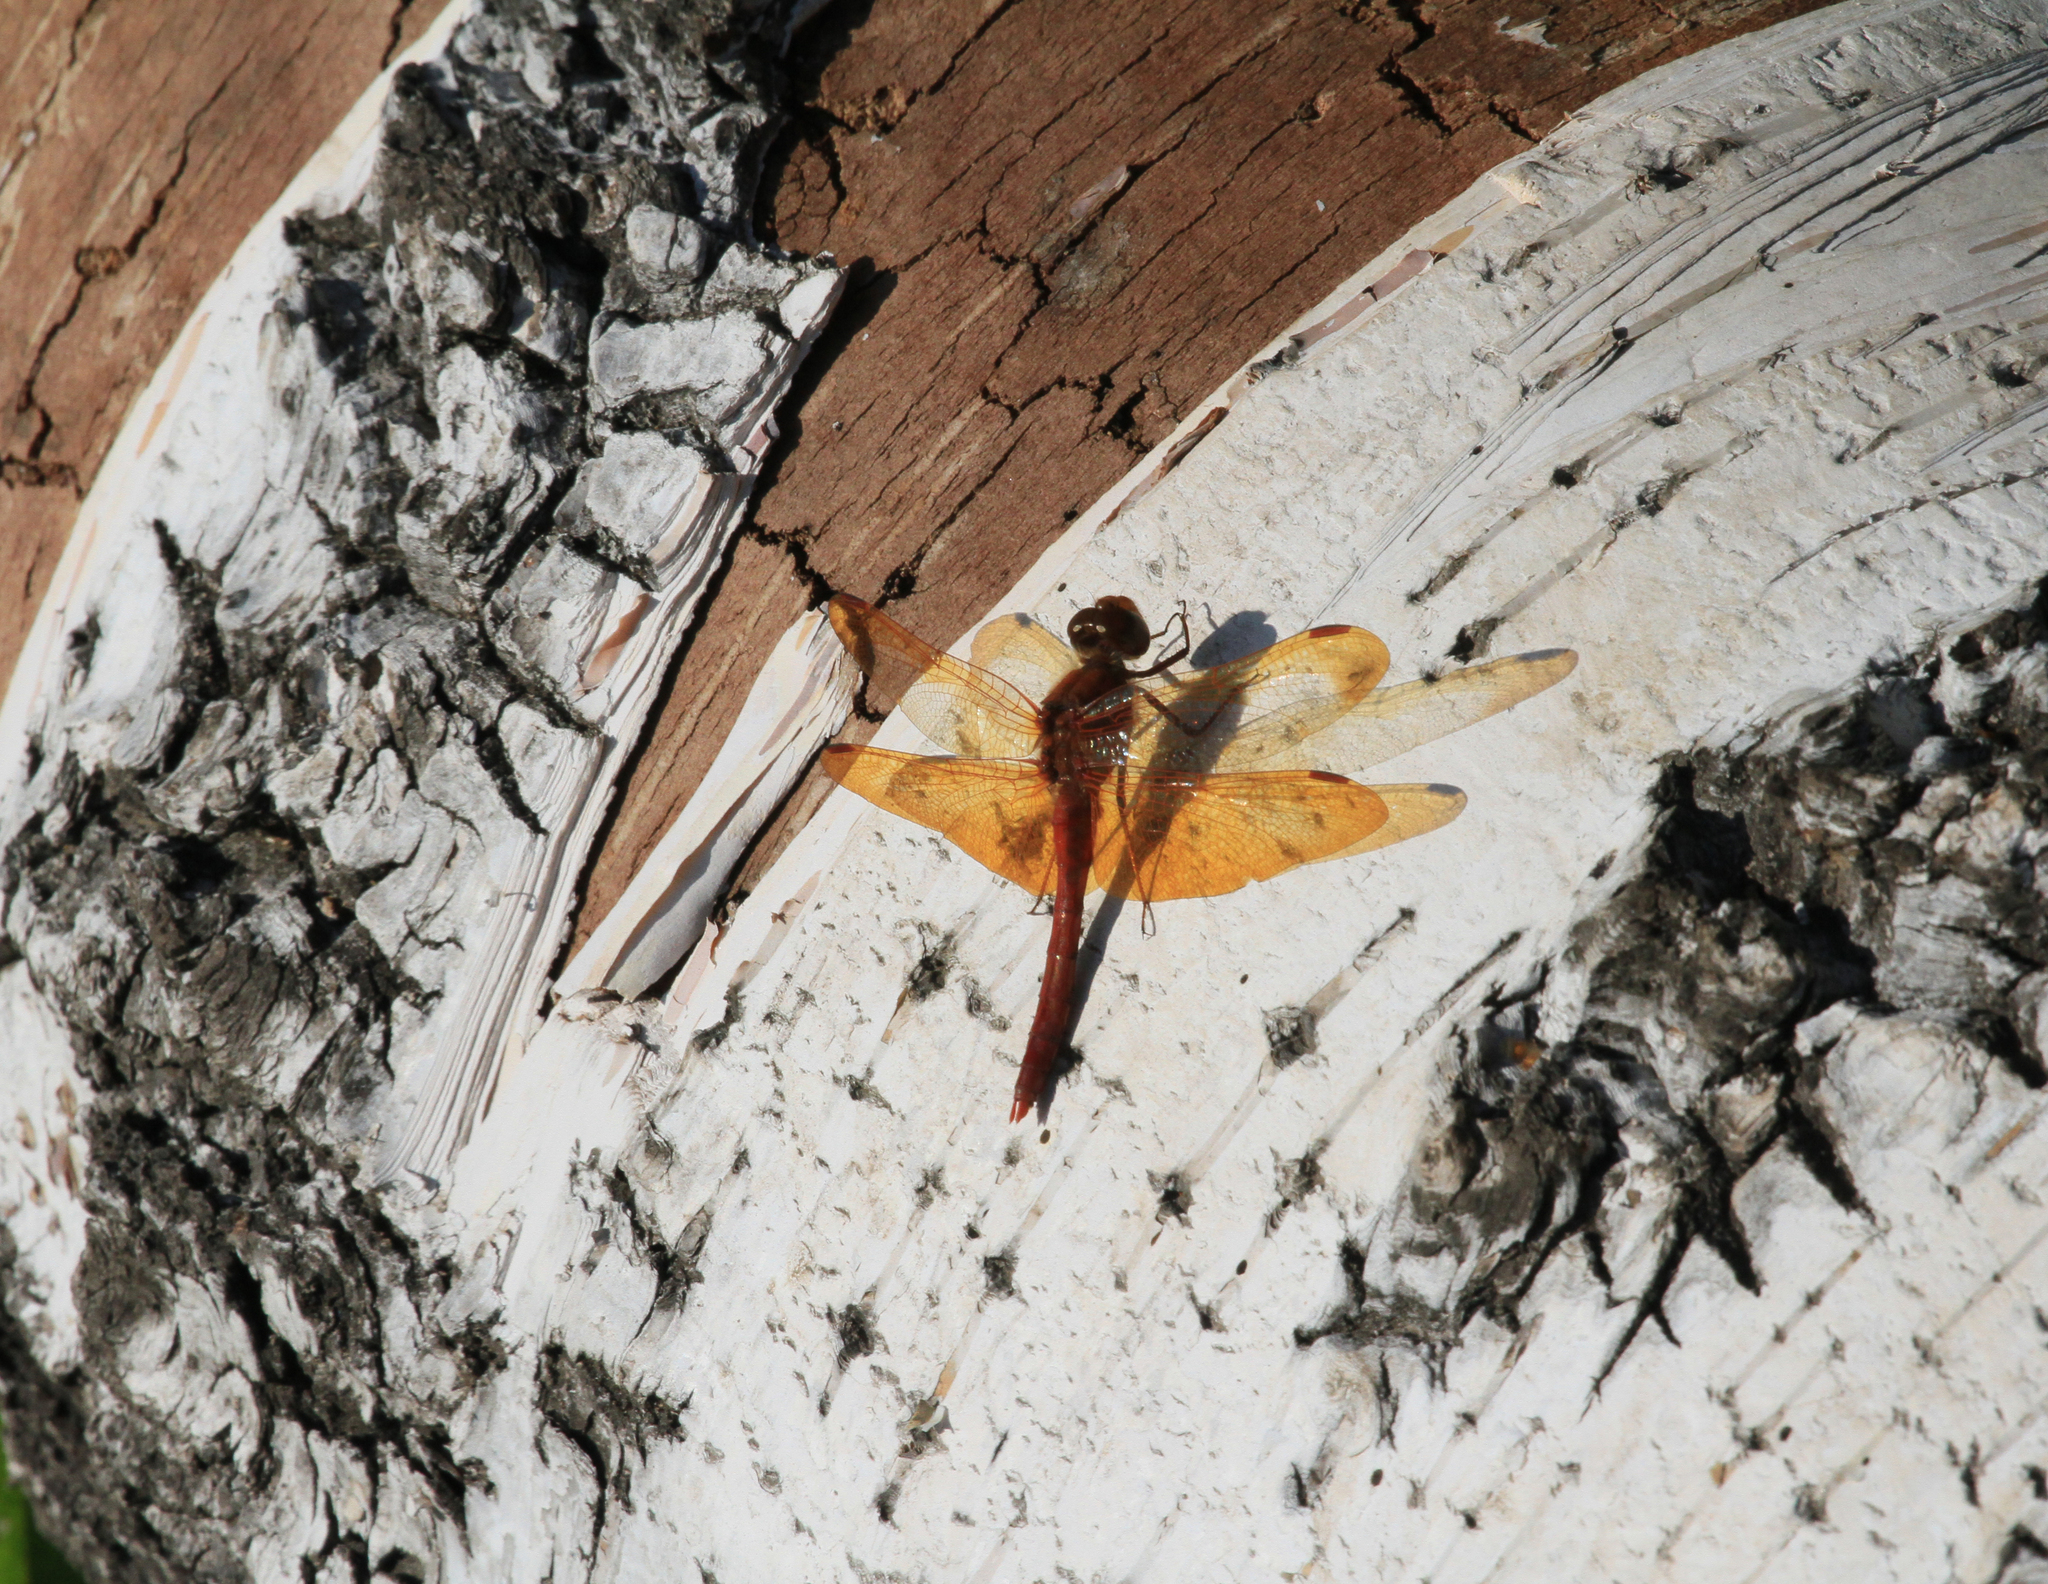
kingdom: Animalia
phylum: Arthropoda
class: Insecta
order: Odonata
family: Libellulidae
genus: Sympetrum
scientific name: Sympetrum croceolum
